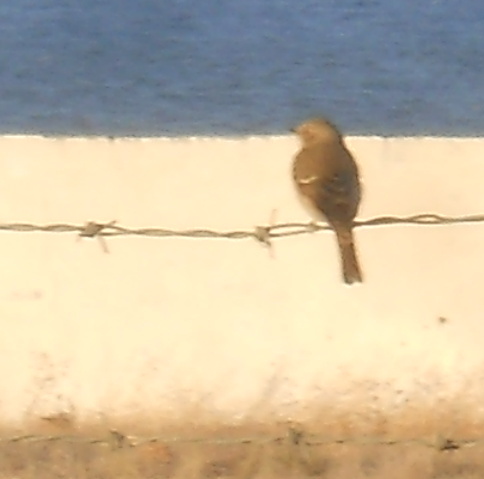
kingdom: Animalia
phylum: Chordata
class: Aves
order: Passeriformes
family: Muscicapidae
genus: Muscicapa
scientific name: Muscicapa striata
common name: Spotted flycatcher
